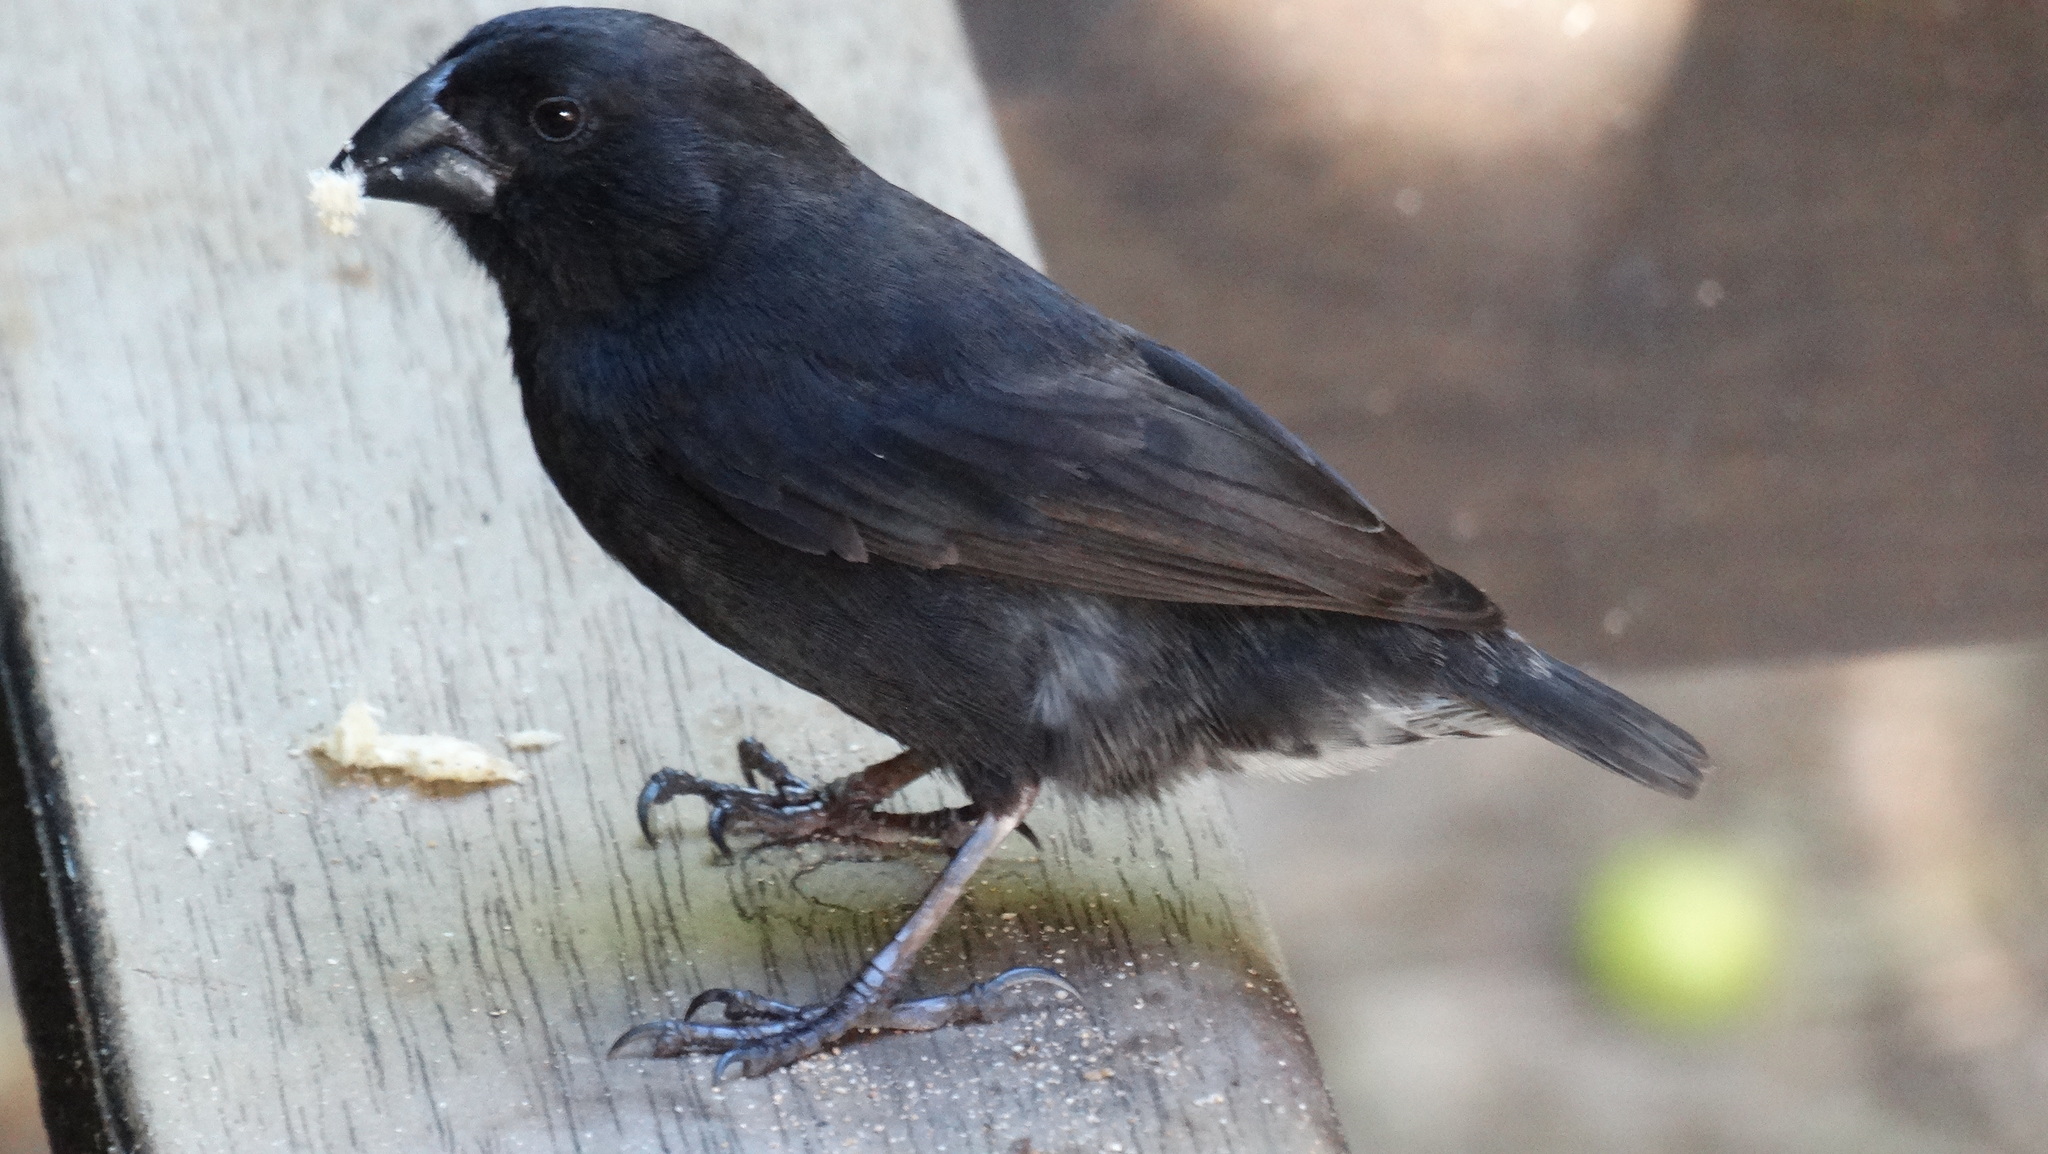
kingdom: Animalia
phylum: Chordata
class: Aves
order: Passeriformes
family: Thraupidae
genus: Geospiza
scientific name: Geospiza fortis
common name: Medium ground finch
